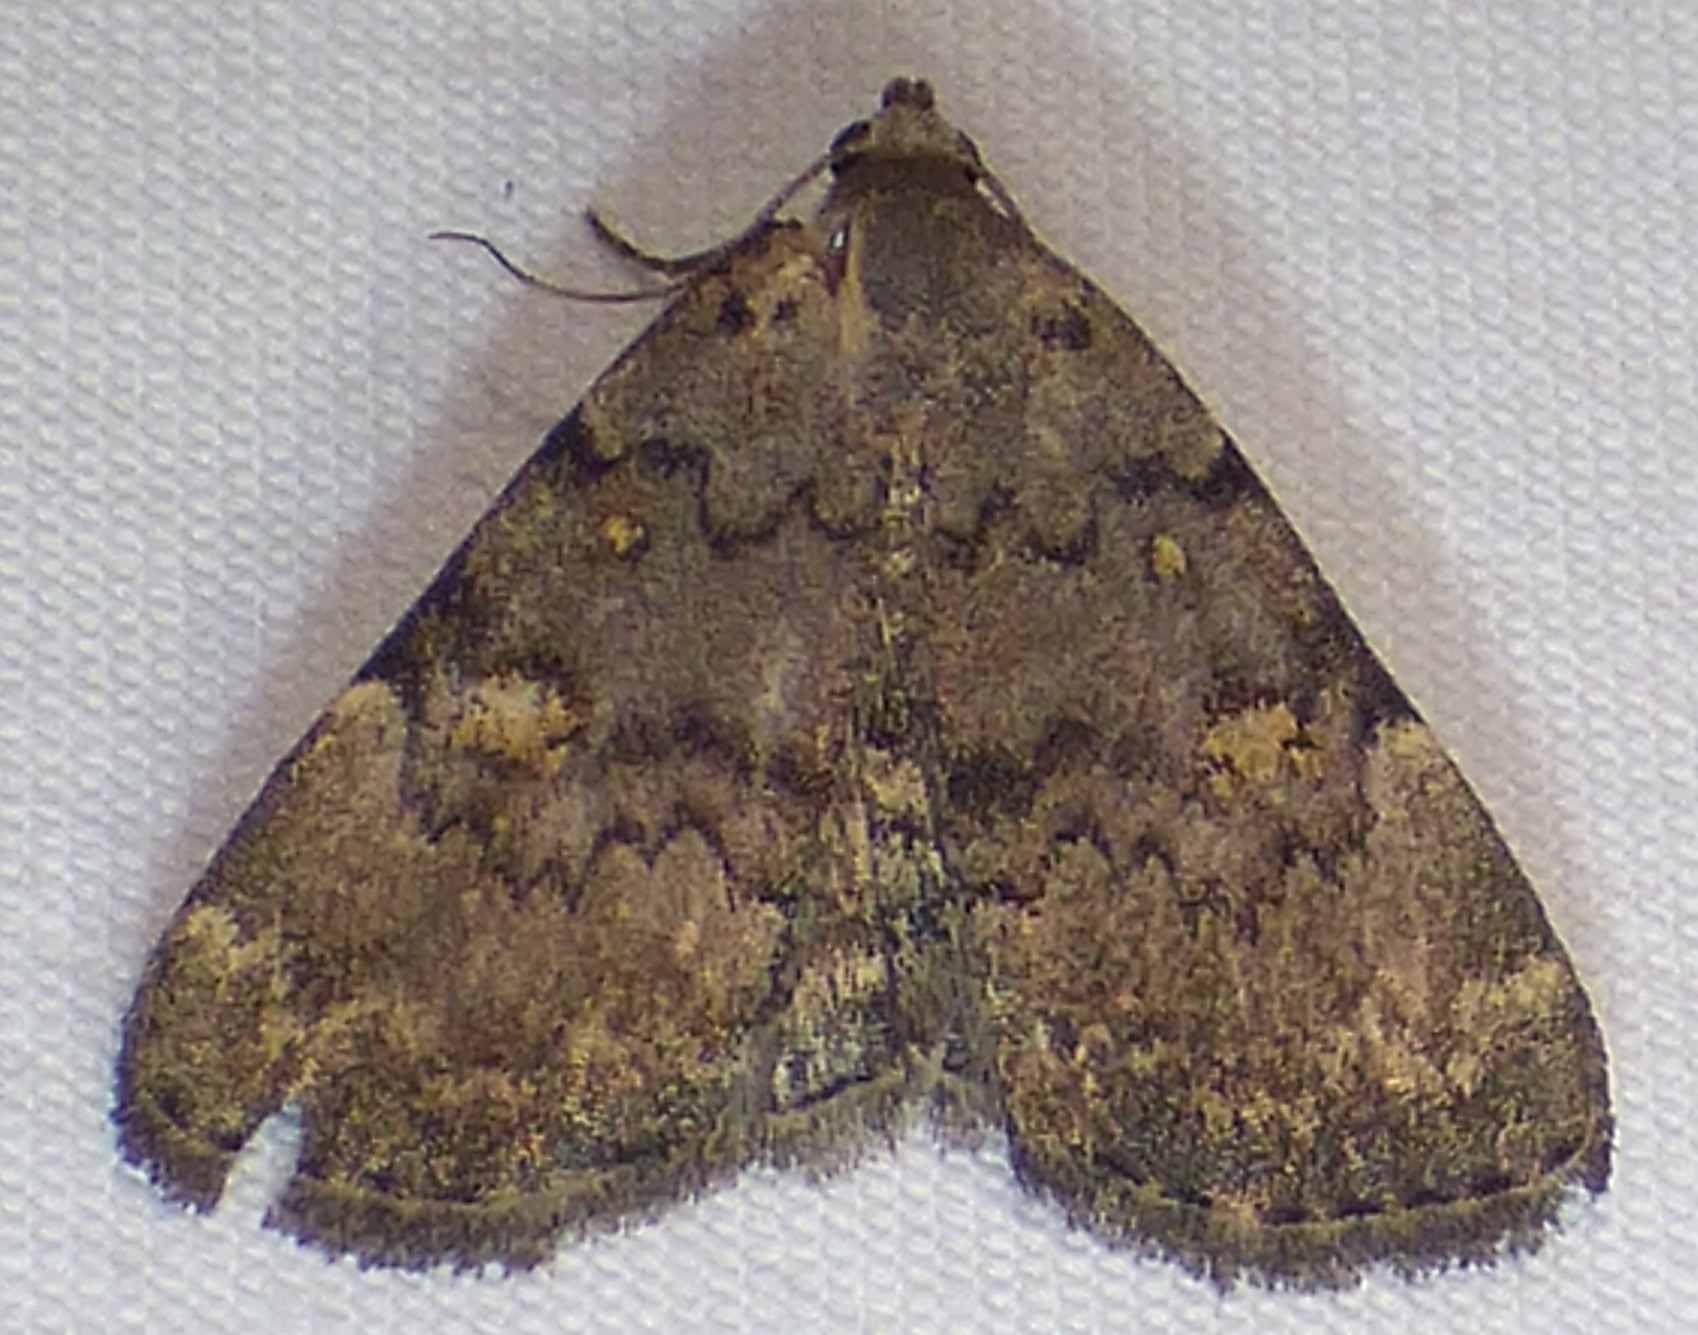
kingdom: Animalia
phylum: Arthropoda
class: Insecta
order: Lepidoptera
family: Erebidae
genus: Idia
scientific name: Idia aemula
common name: Common idia moth
